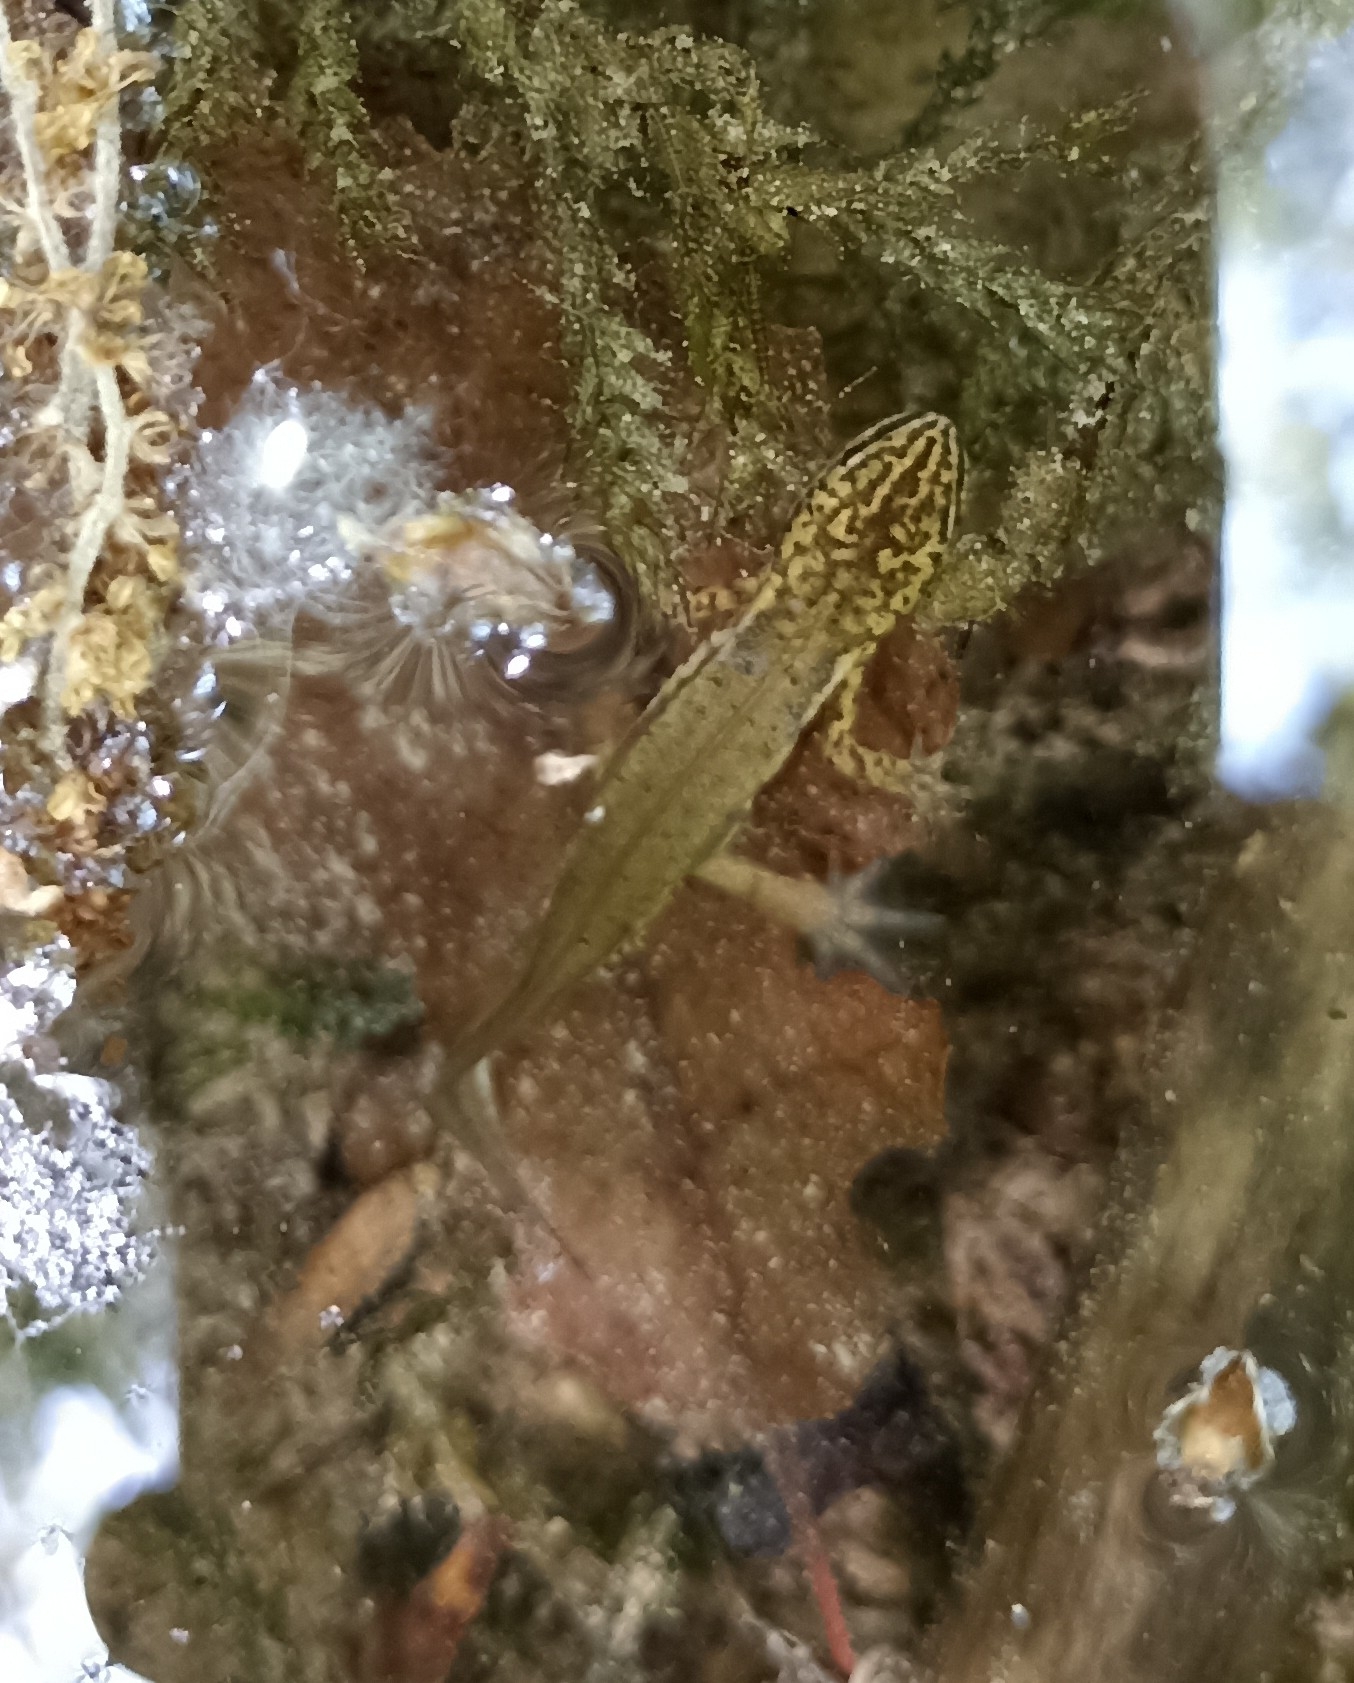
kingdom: Animalia
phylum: Chordata
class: Amphibia
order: Caudata
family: Salamandridae
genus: Lissotriton
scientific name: Lissotriton helveticus
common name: Palmate newt
